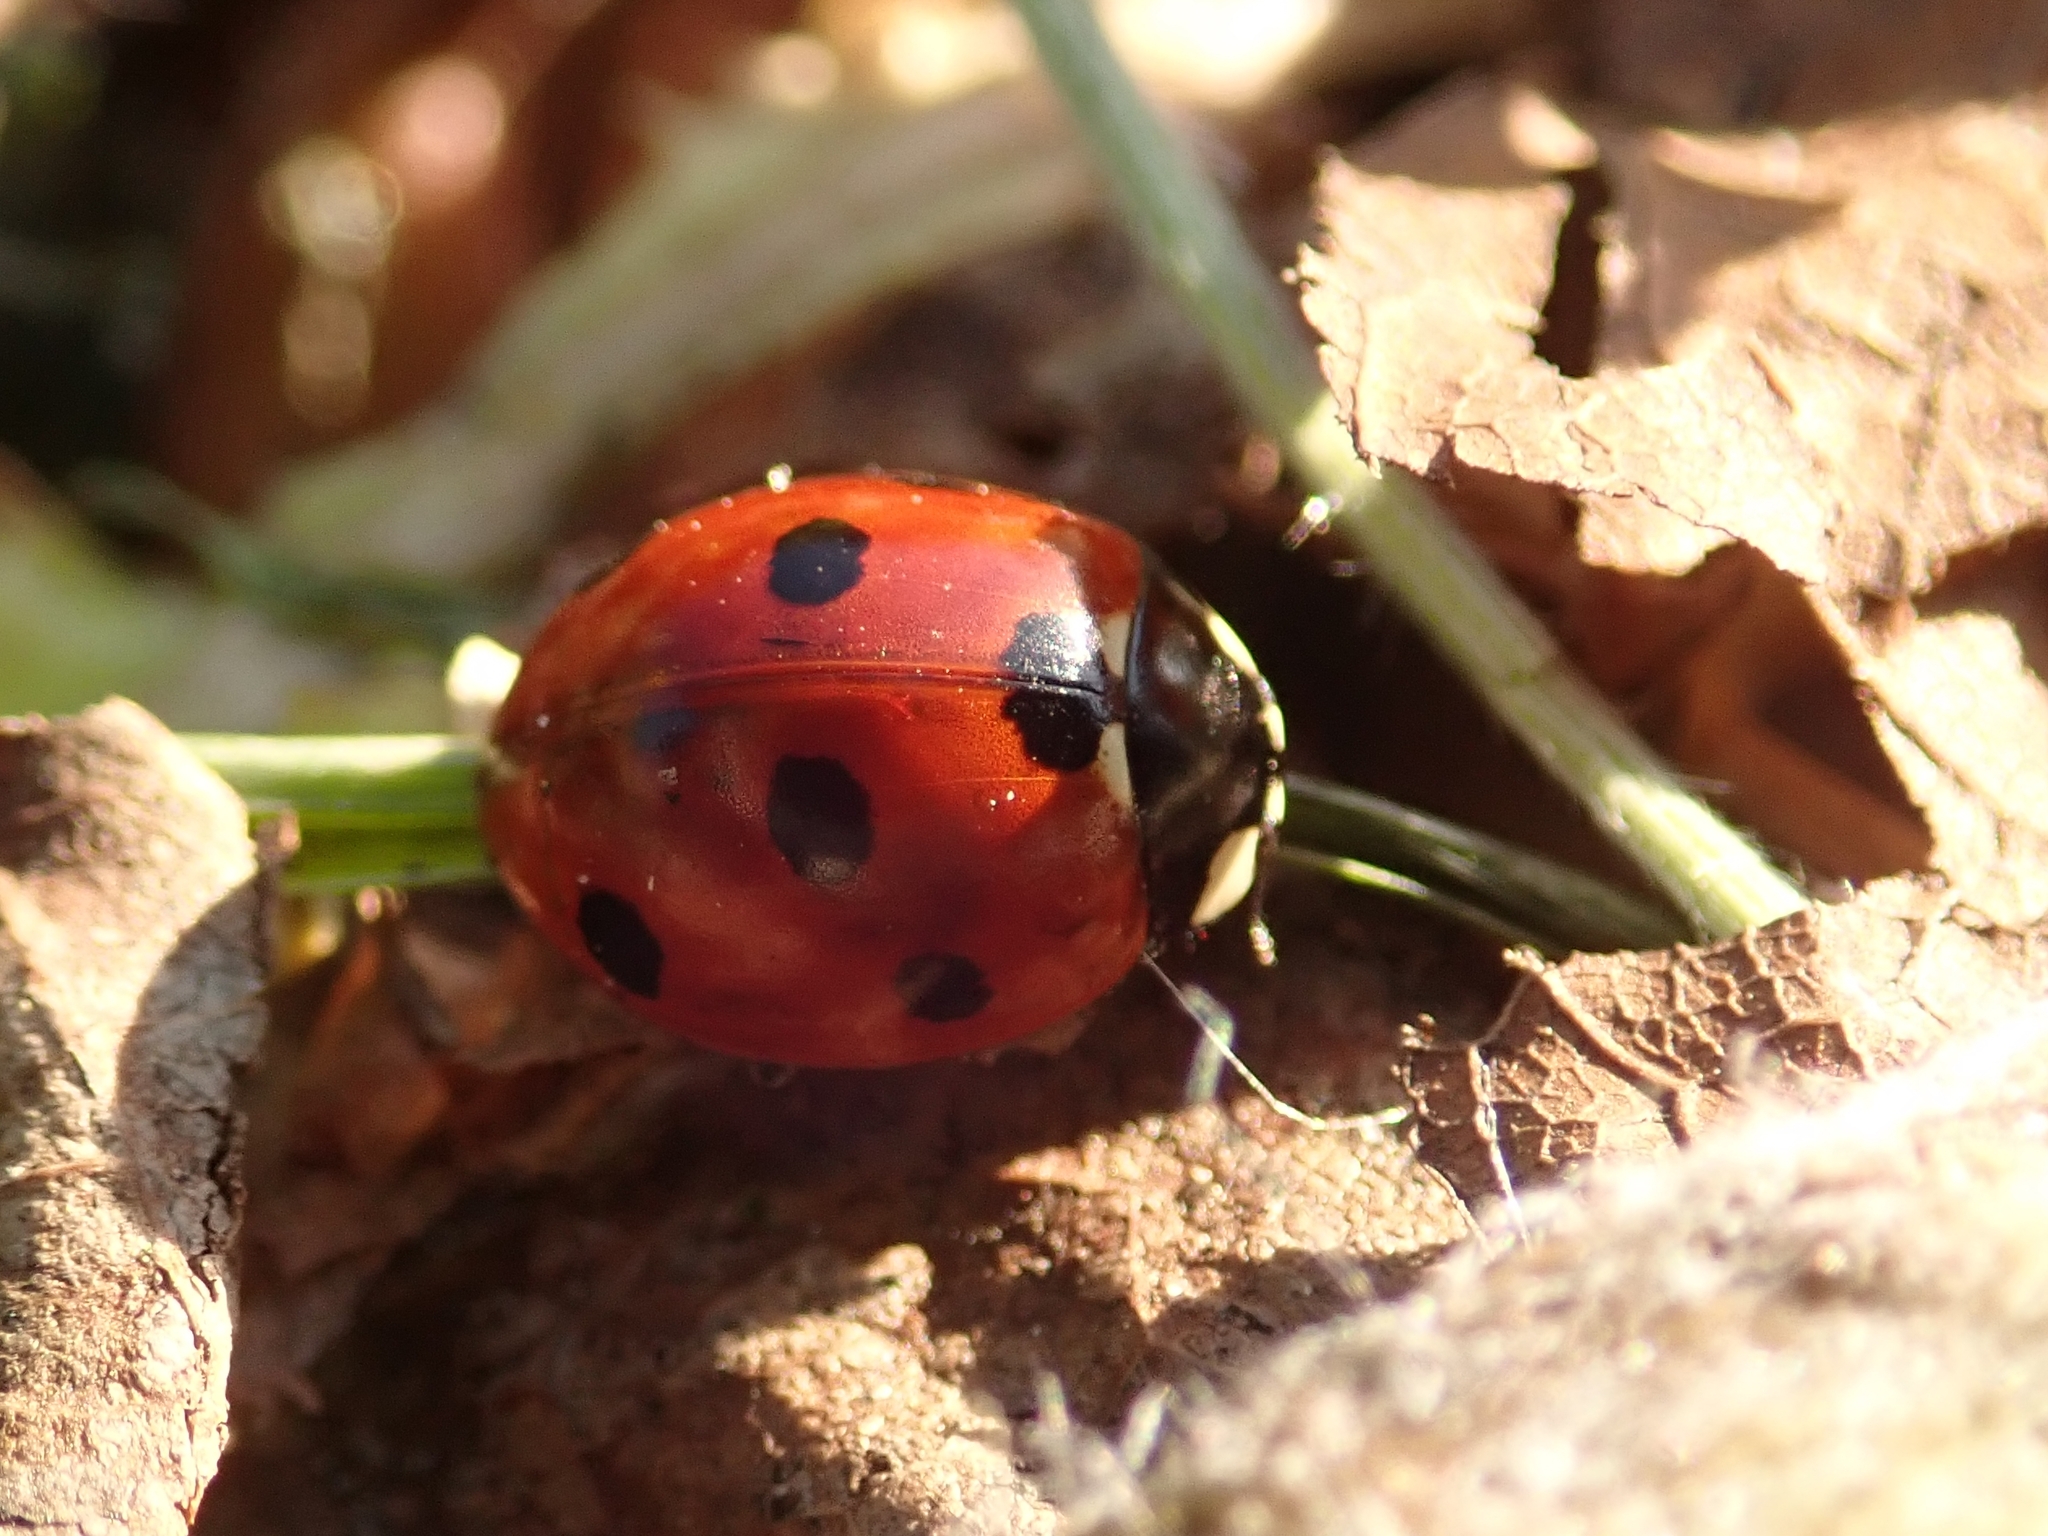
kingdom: Animalia
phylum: Arthropoda
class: Insecta
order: Coleoptera
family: Coccinellidae
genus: Coccinella
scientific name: Coccinella septempunctata
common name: Sevenspotted lady beetle
